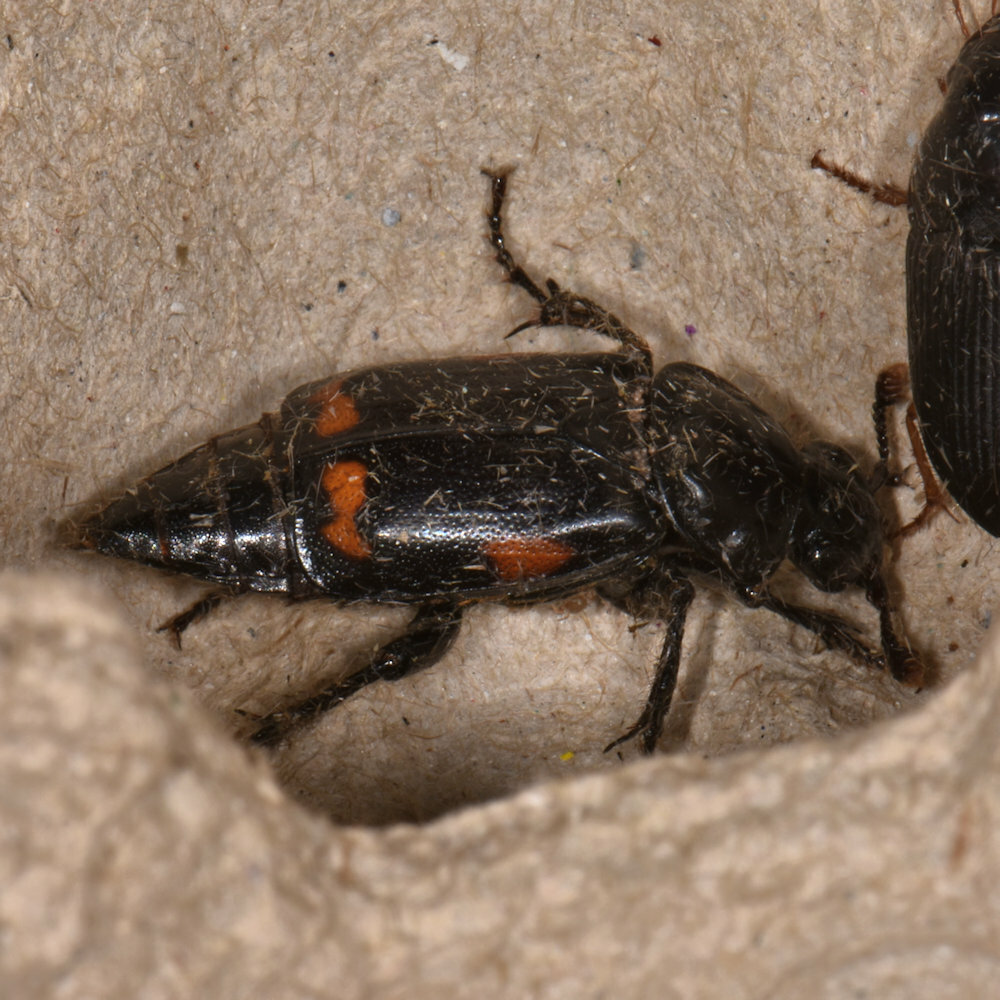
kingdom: Animalia
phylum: Arthropoda
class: Insecta
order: Coleoptera
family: Staphylinidae
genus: Nicrophorus
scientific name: Nicrophorus pustulatus
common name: Pustulated carrion beetle
